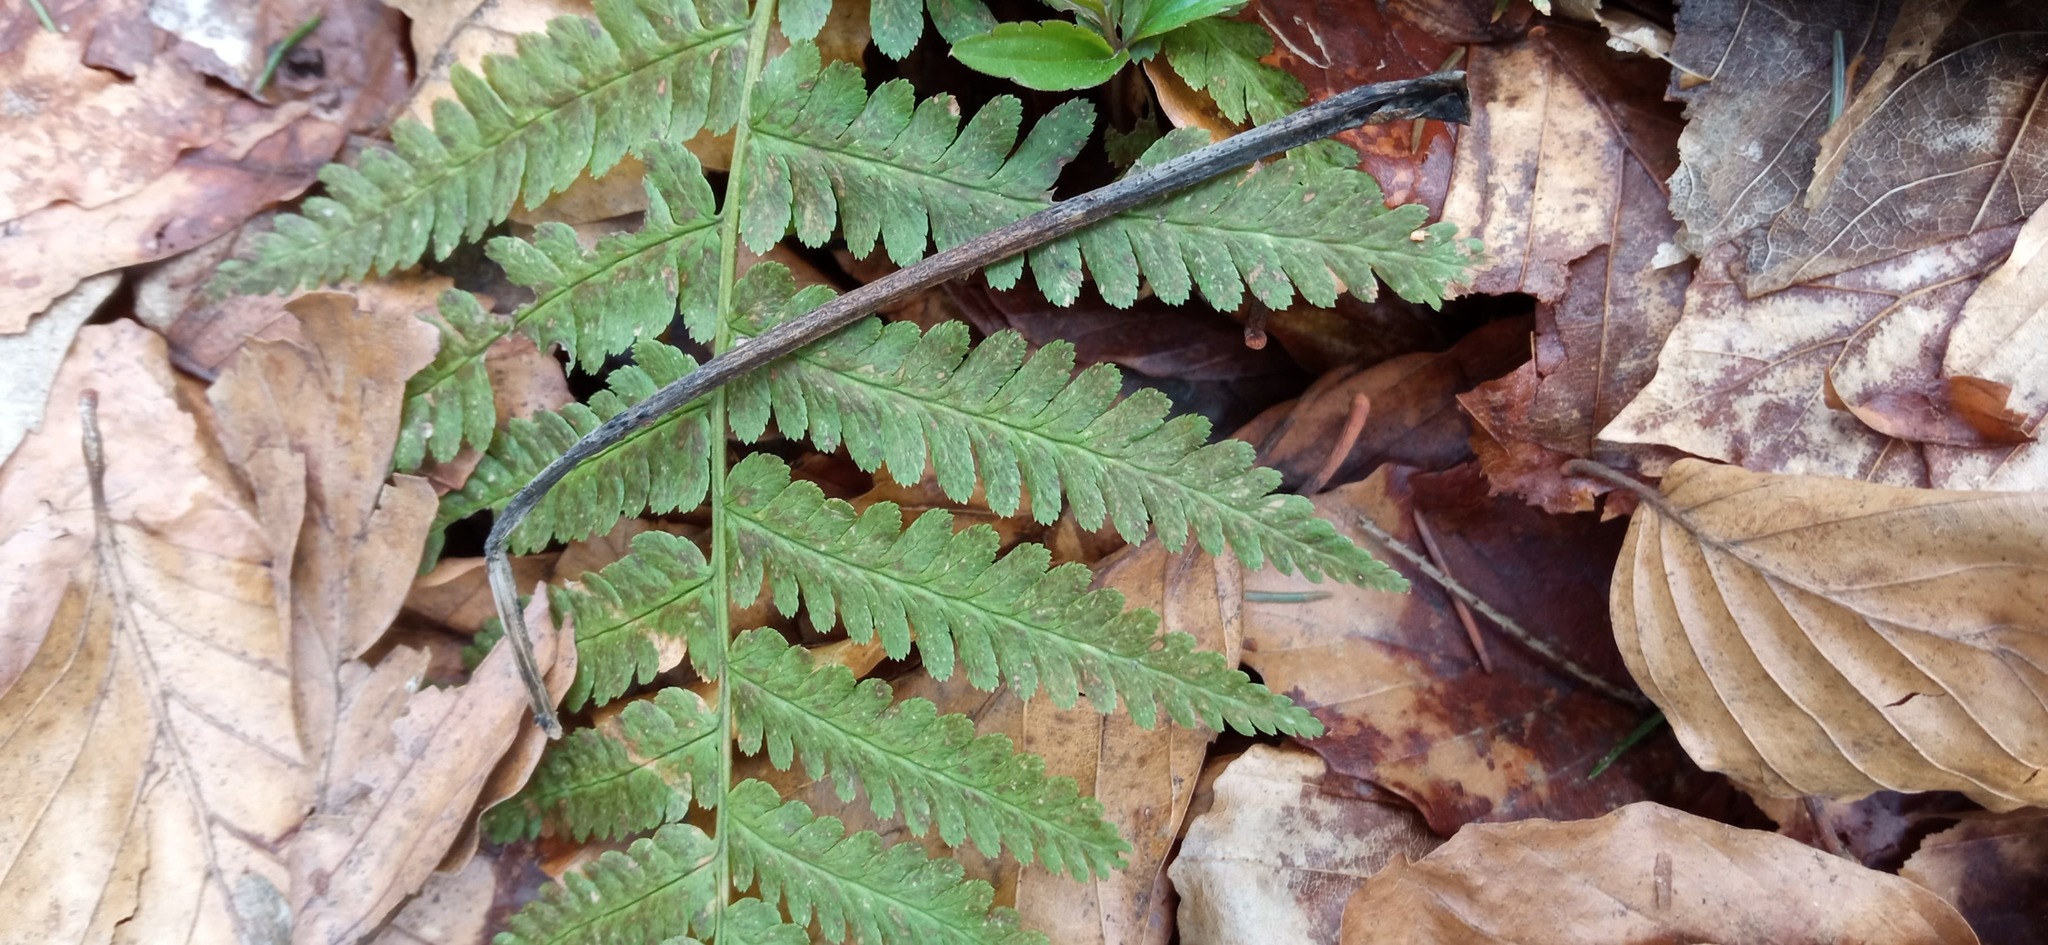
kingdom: Plantae
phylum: Tracheophyta
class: Polypodiopsida
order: Polypodiales
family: Dryopteridaceae
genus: Dryopteris
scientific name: Dryopteris filix-mas
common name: Male fern
